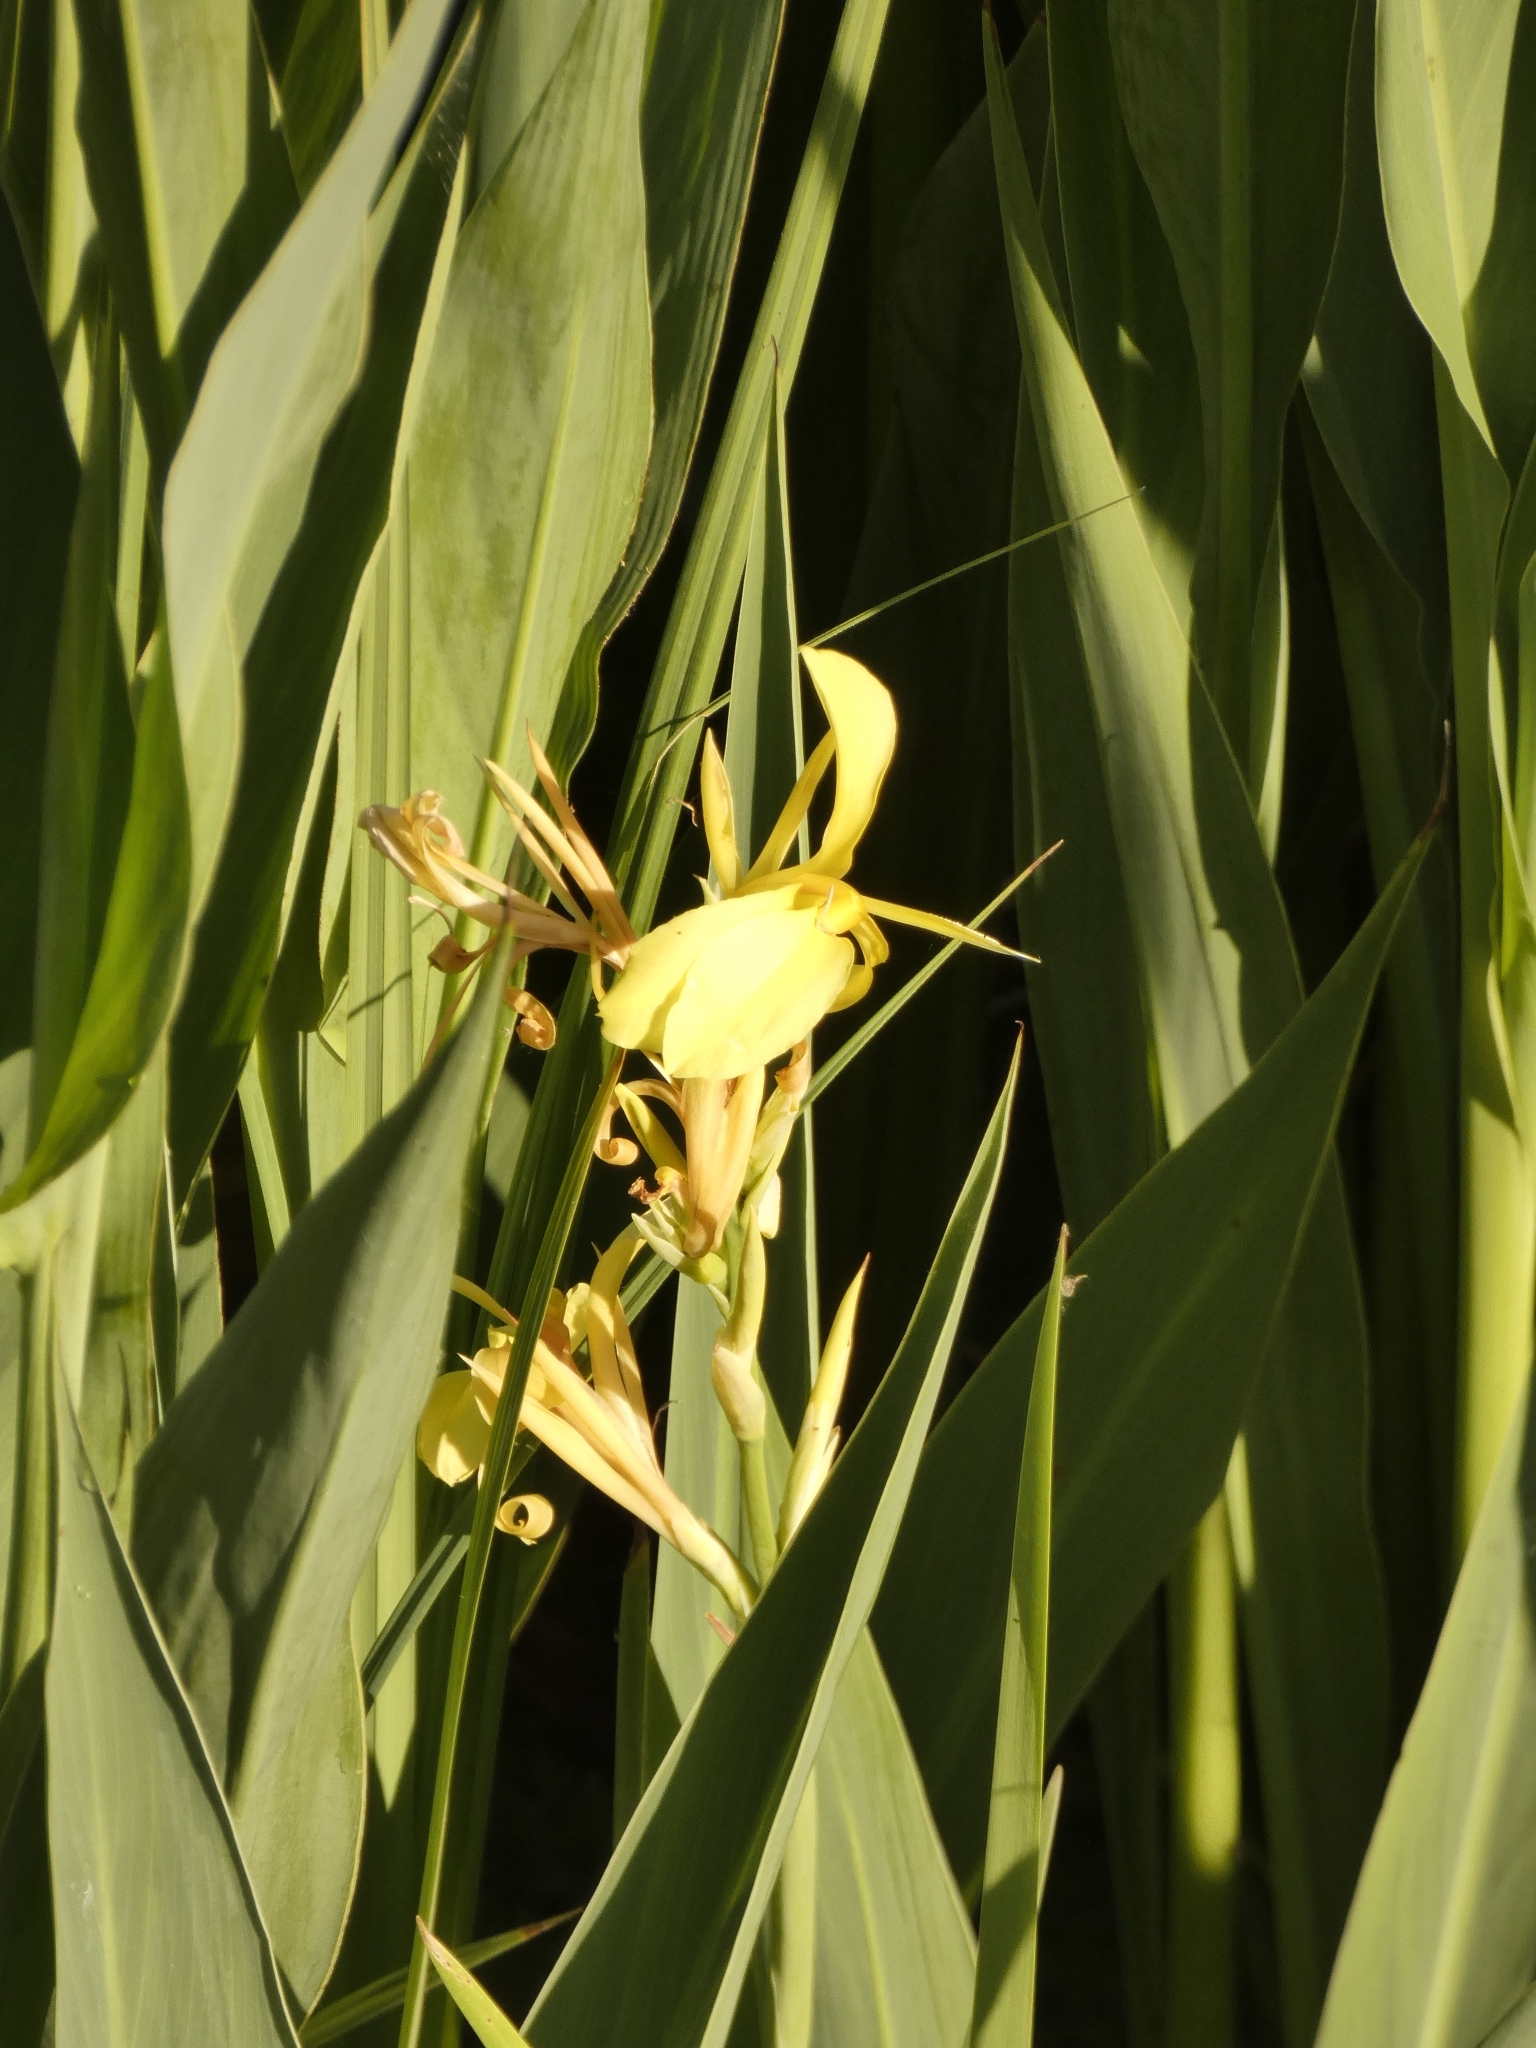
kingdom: Plantae
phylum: Tracheophyta
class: Liliopsida
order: Zingiberales
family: Cannaceae
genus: Canna
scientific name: Canna glauca
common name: Louisiana canna
